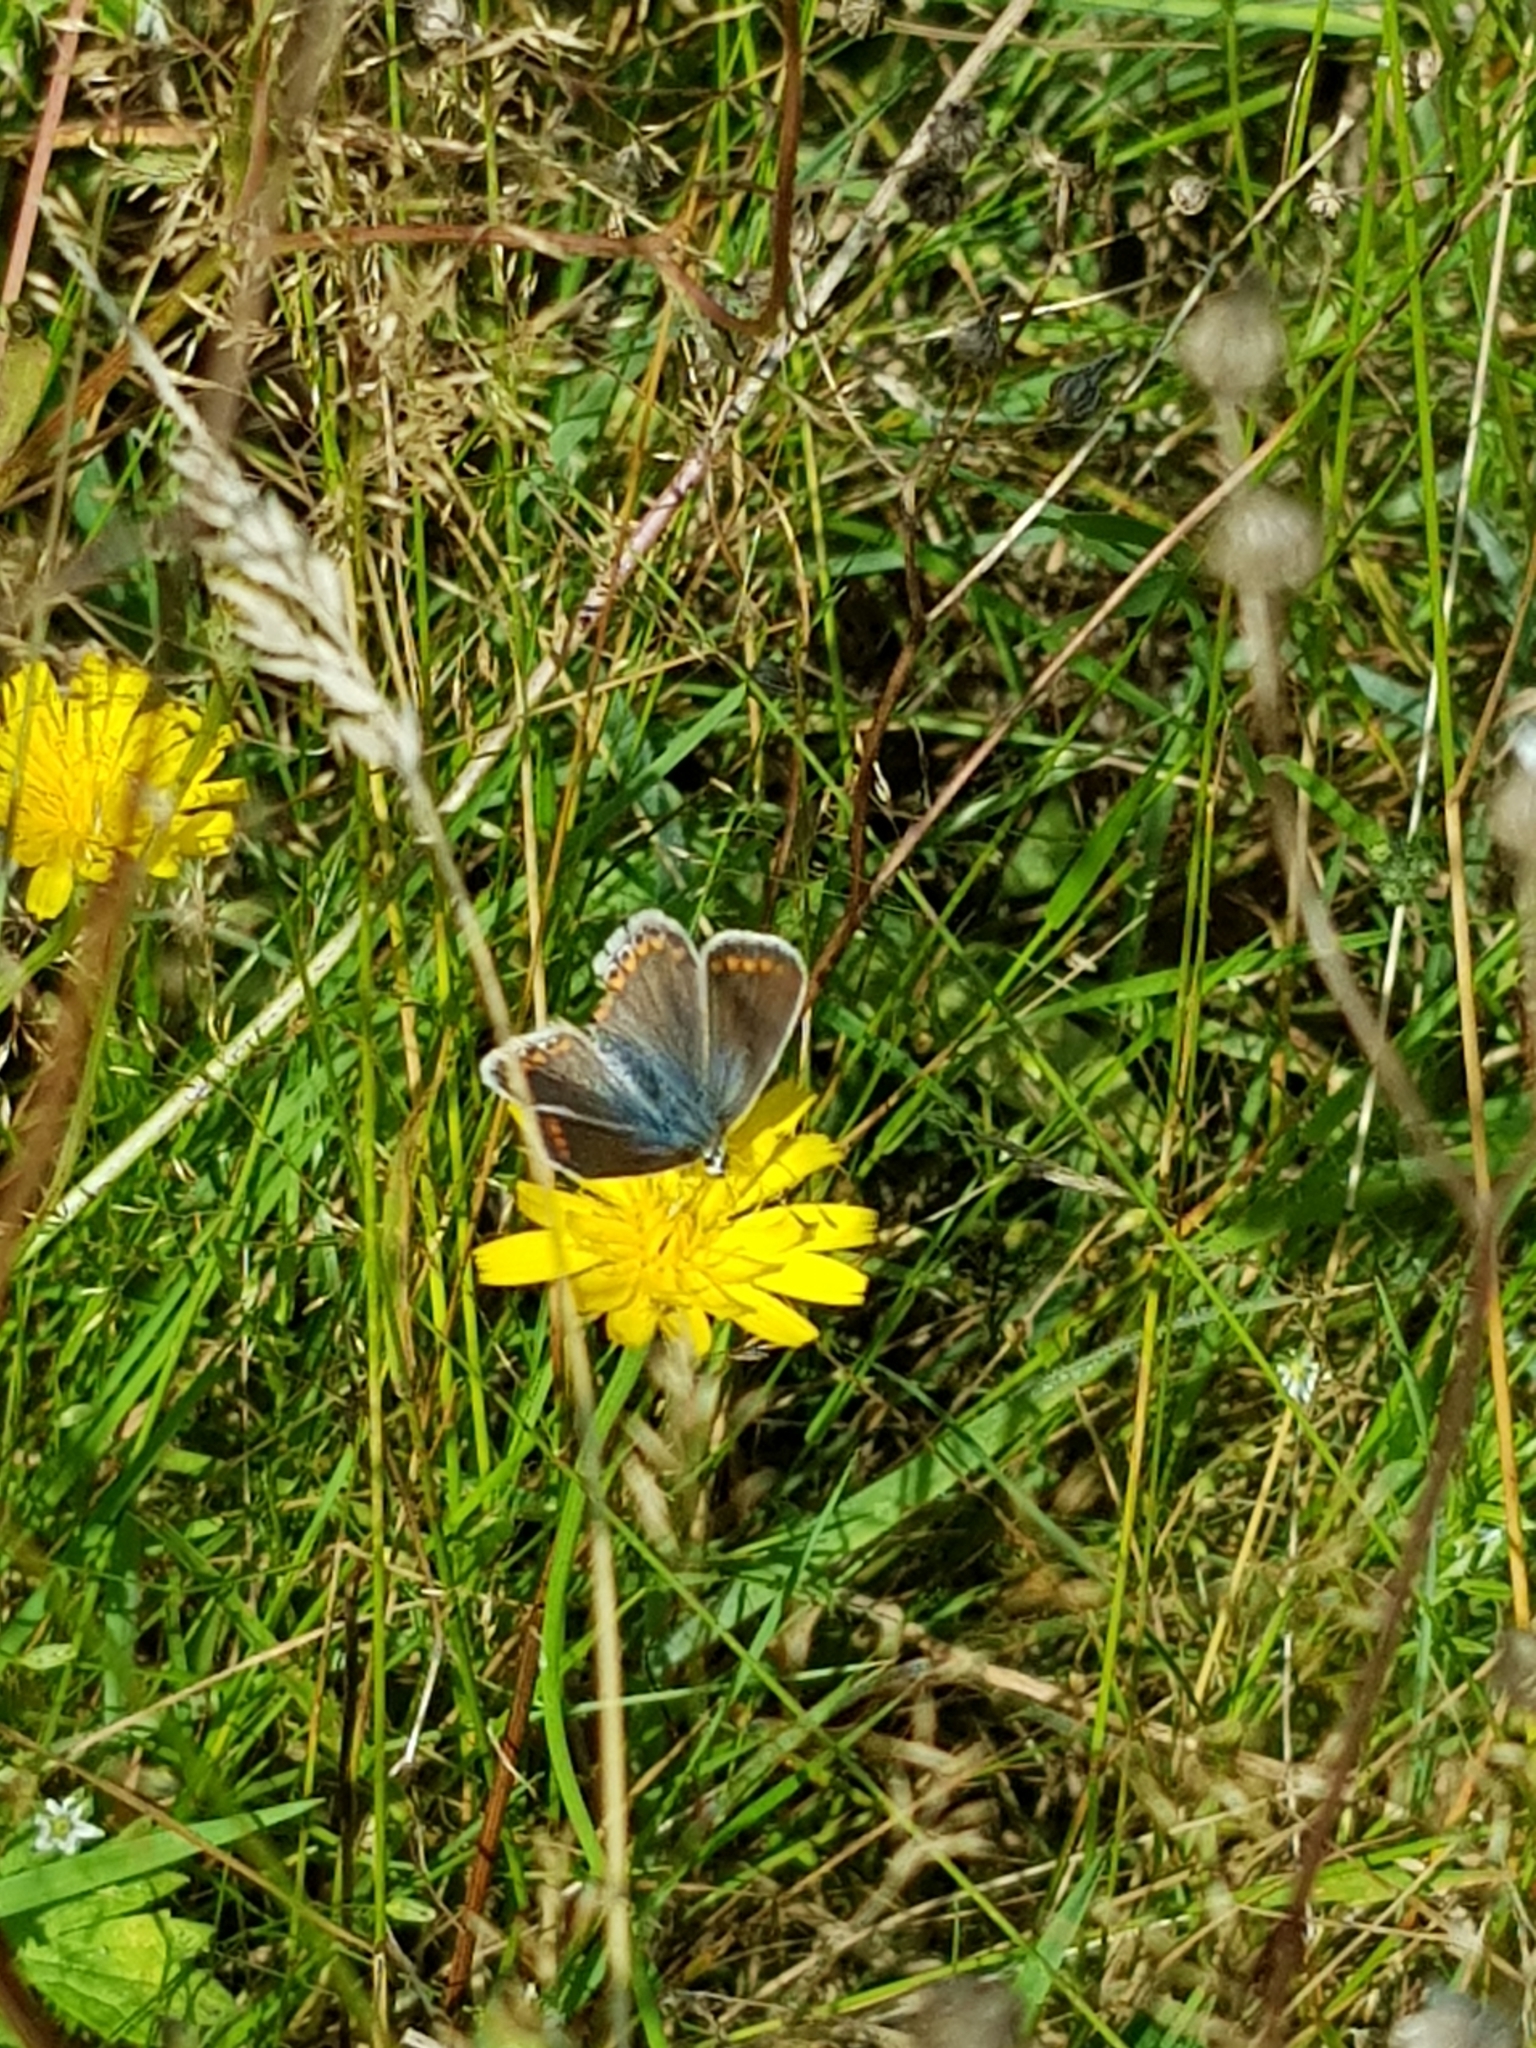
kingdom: Animalia
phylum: Arthropoda
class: Insecta
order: Lepidoptera
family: Lycaenidae
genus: Polyommatus
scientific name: Polyommatus icarus
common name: Common blue
